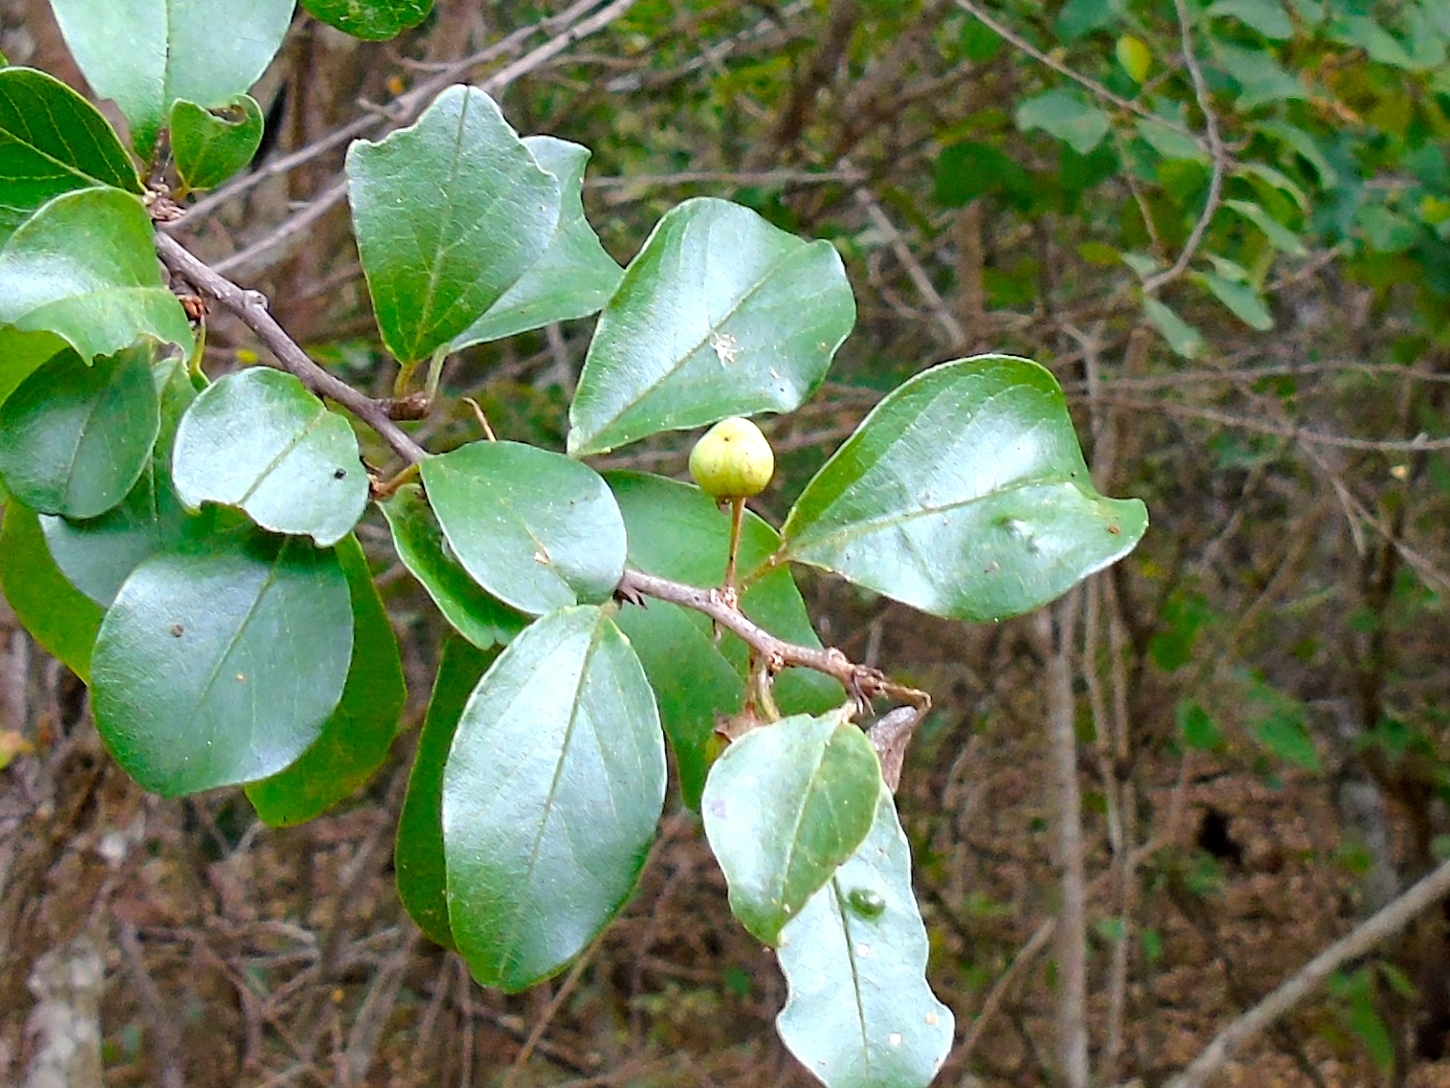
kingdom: Plantae
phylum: Tracheophyta
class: Magnoliopsida
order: Rosales
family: Rhamnaceae
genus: Colubrina
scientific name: Colubrina heteroneura
